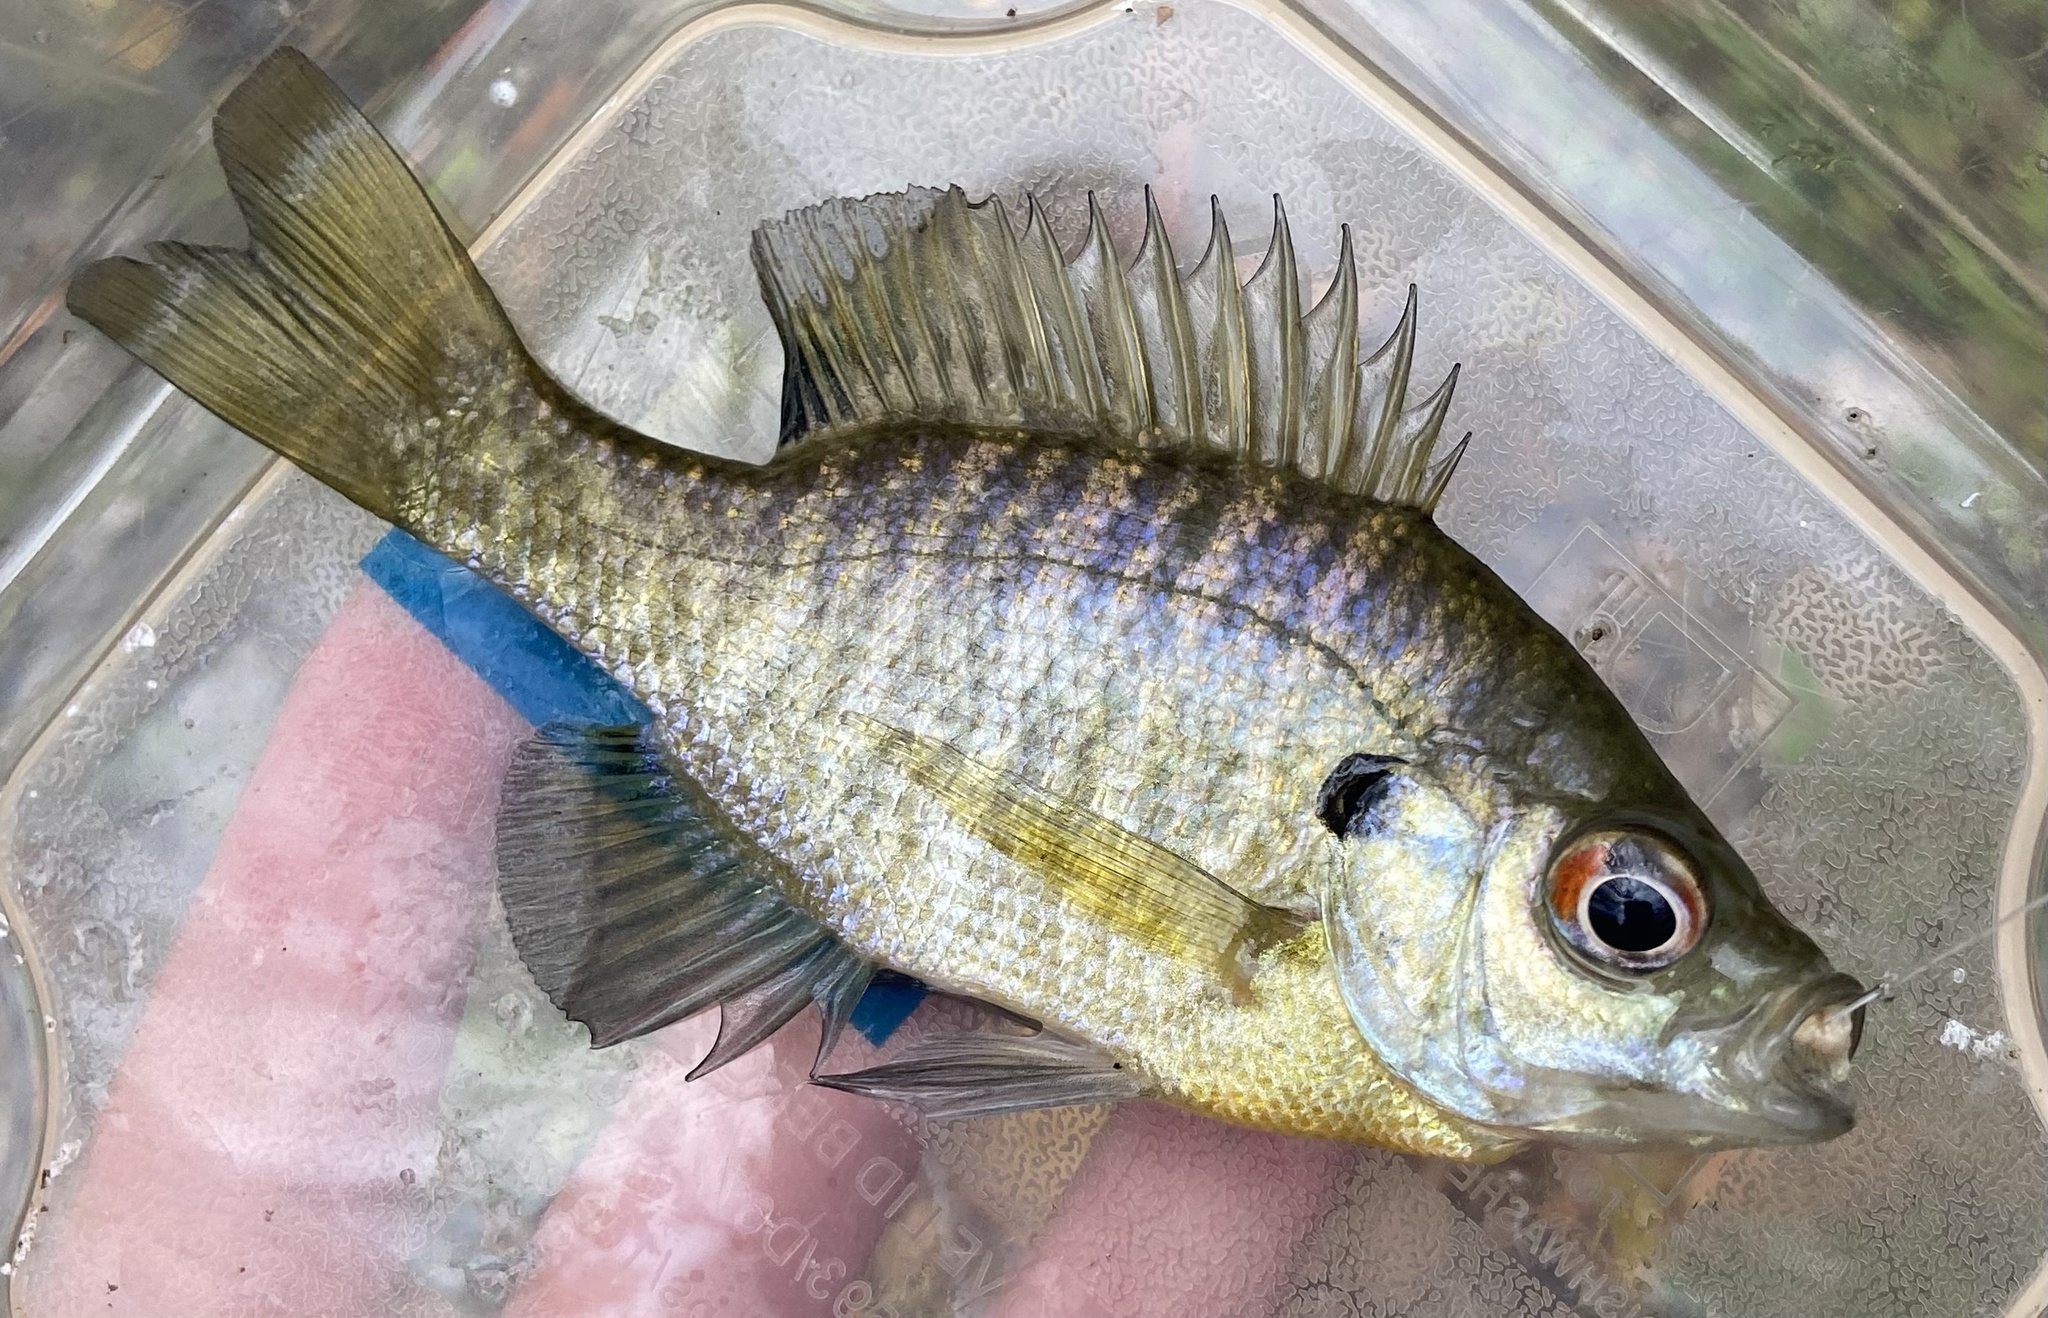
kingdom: Animalia
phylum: Chordata
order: Perciformes
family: Centrarchidae
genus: Lepomis
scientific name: Lepomis macrochirus
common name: Bluegill
